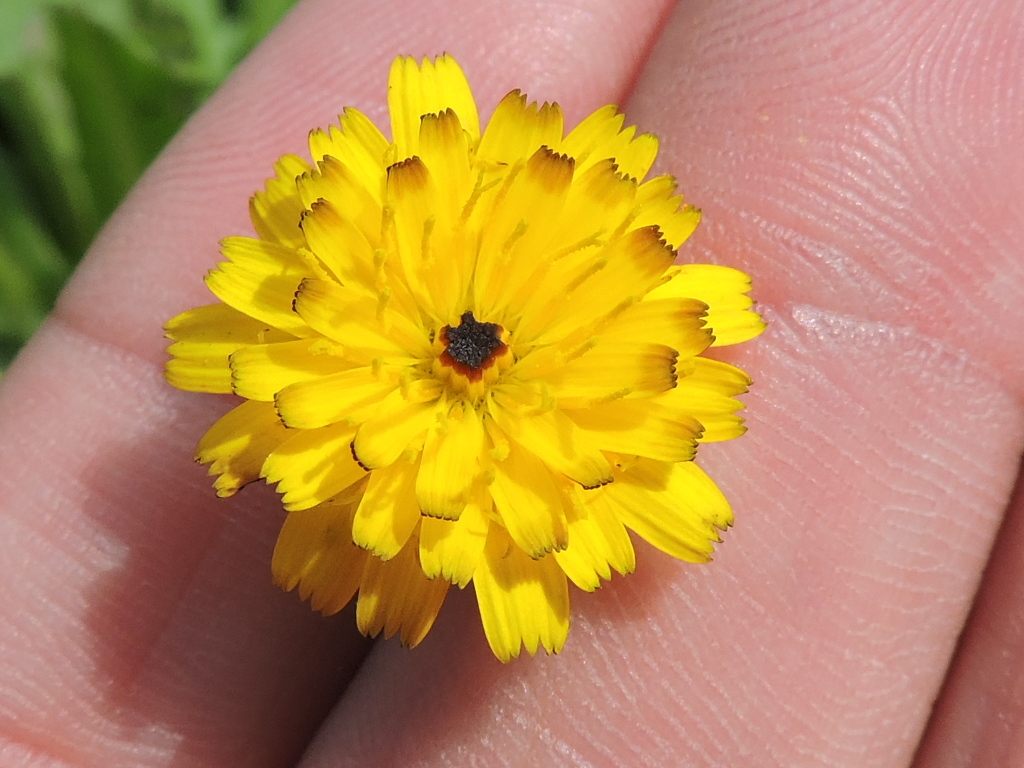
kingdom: Plantae
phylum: Tracheophyta
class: Magnoliopsida
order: Asterales
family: Asteraceae
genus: Hedypnois
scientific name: Hedypnois rhagadioloides
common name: Cretan weed
